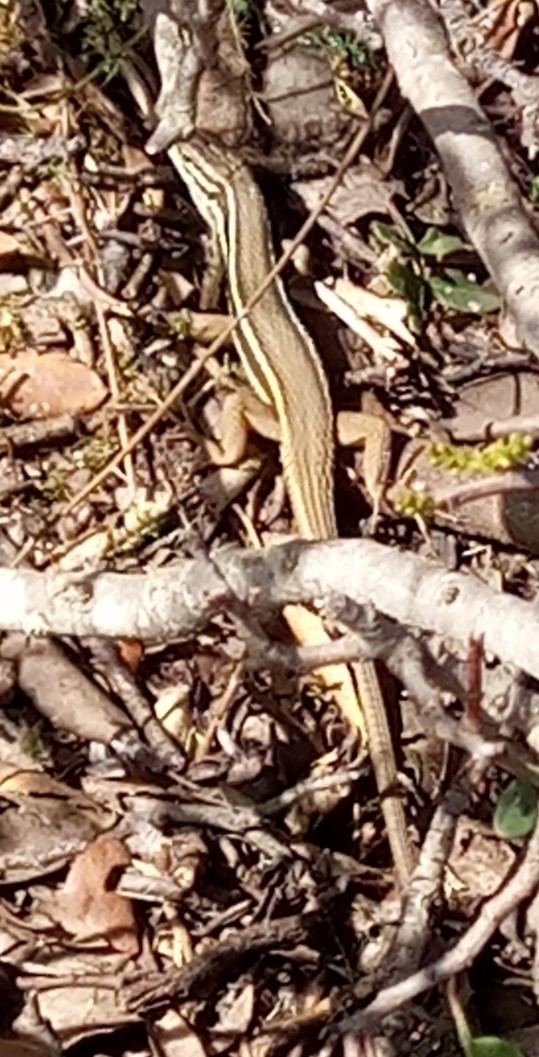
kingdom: Animalia
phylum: Chordata
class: Squamata
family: Lacertidae
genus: Psammodromus
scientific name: Psammodromus algirus
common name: Algerian psammodromus
